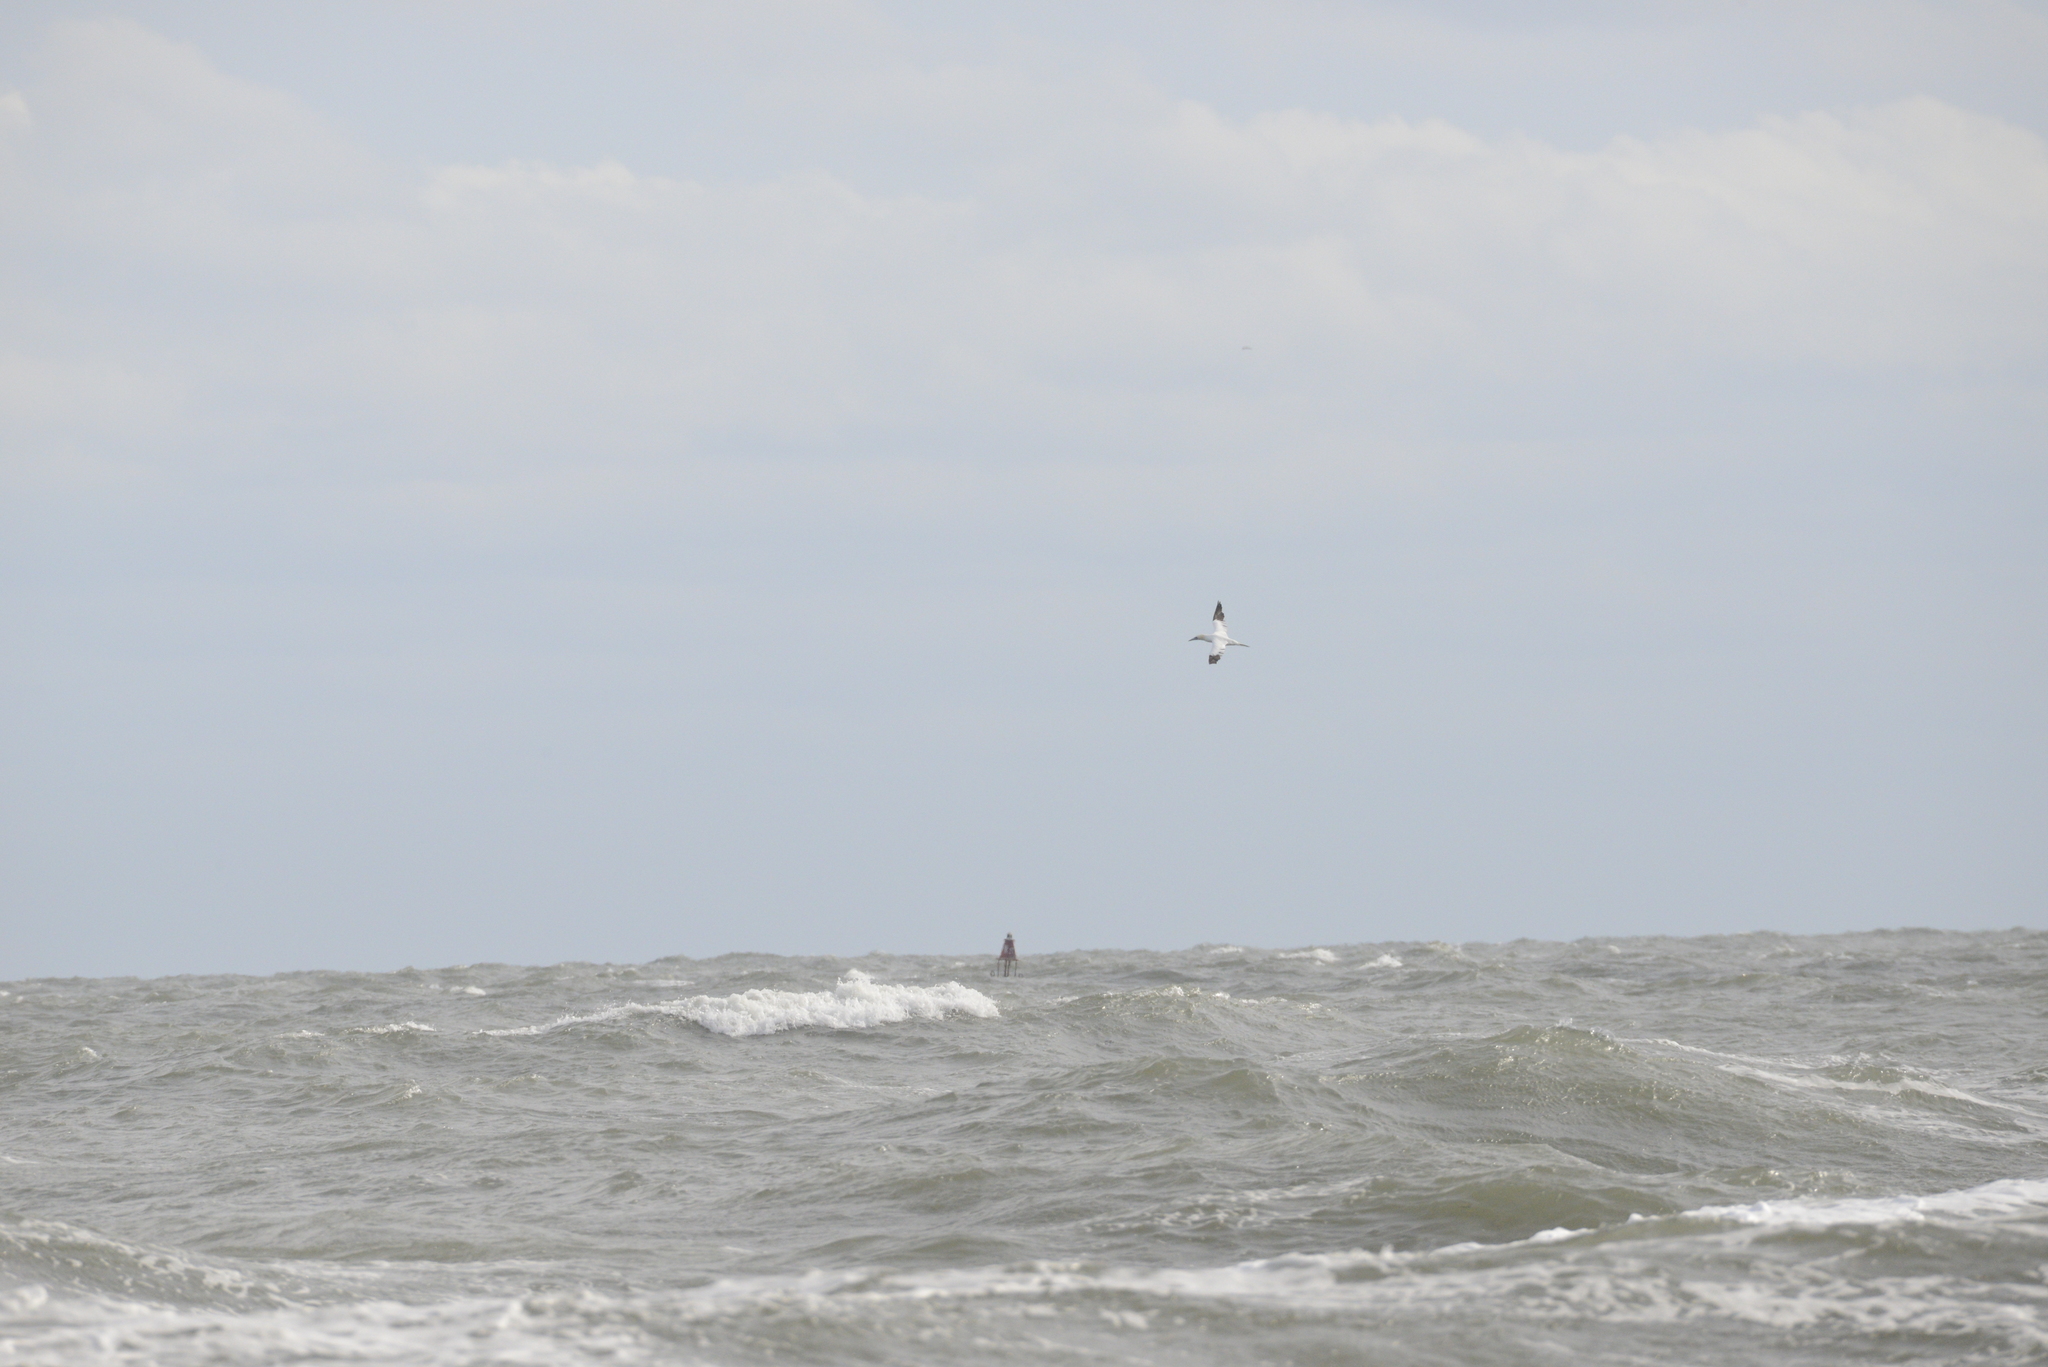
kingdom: Animalia
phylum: Chordata
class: Aves
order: Suliformes
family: Sulidae
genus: Morus
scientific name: Morus bassanus
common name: Northern gannet
